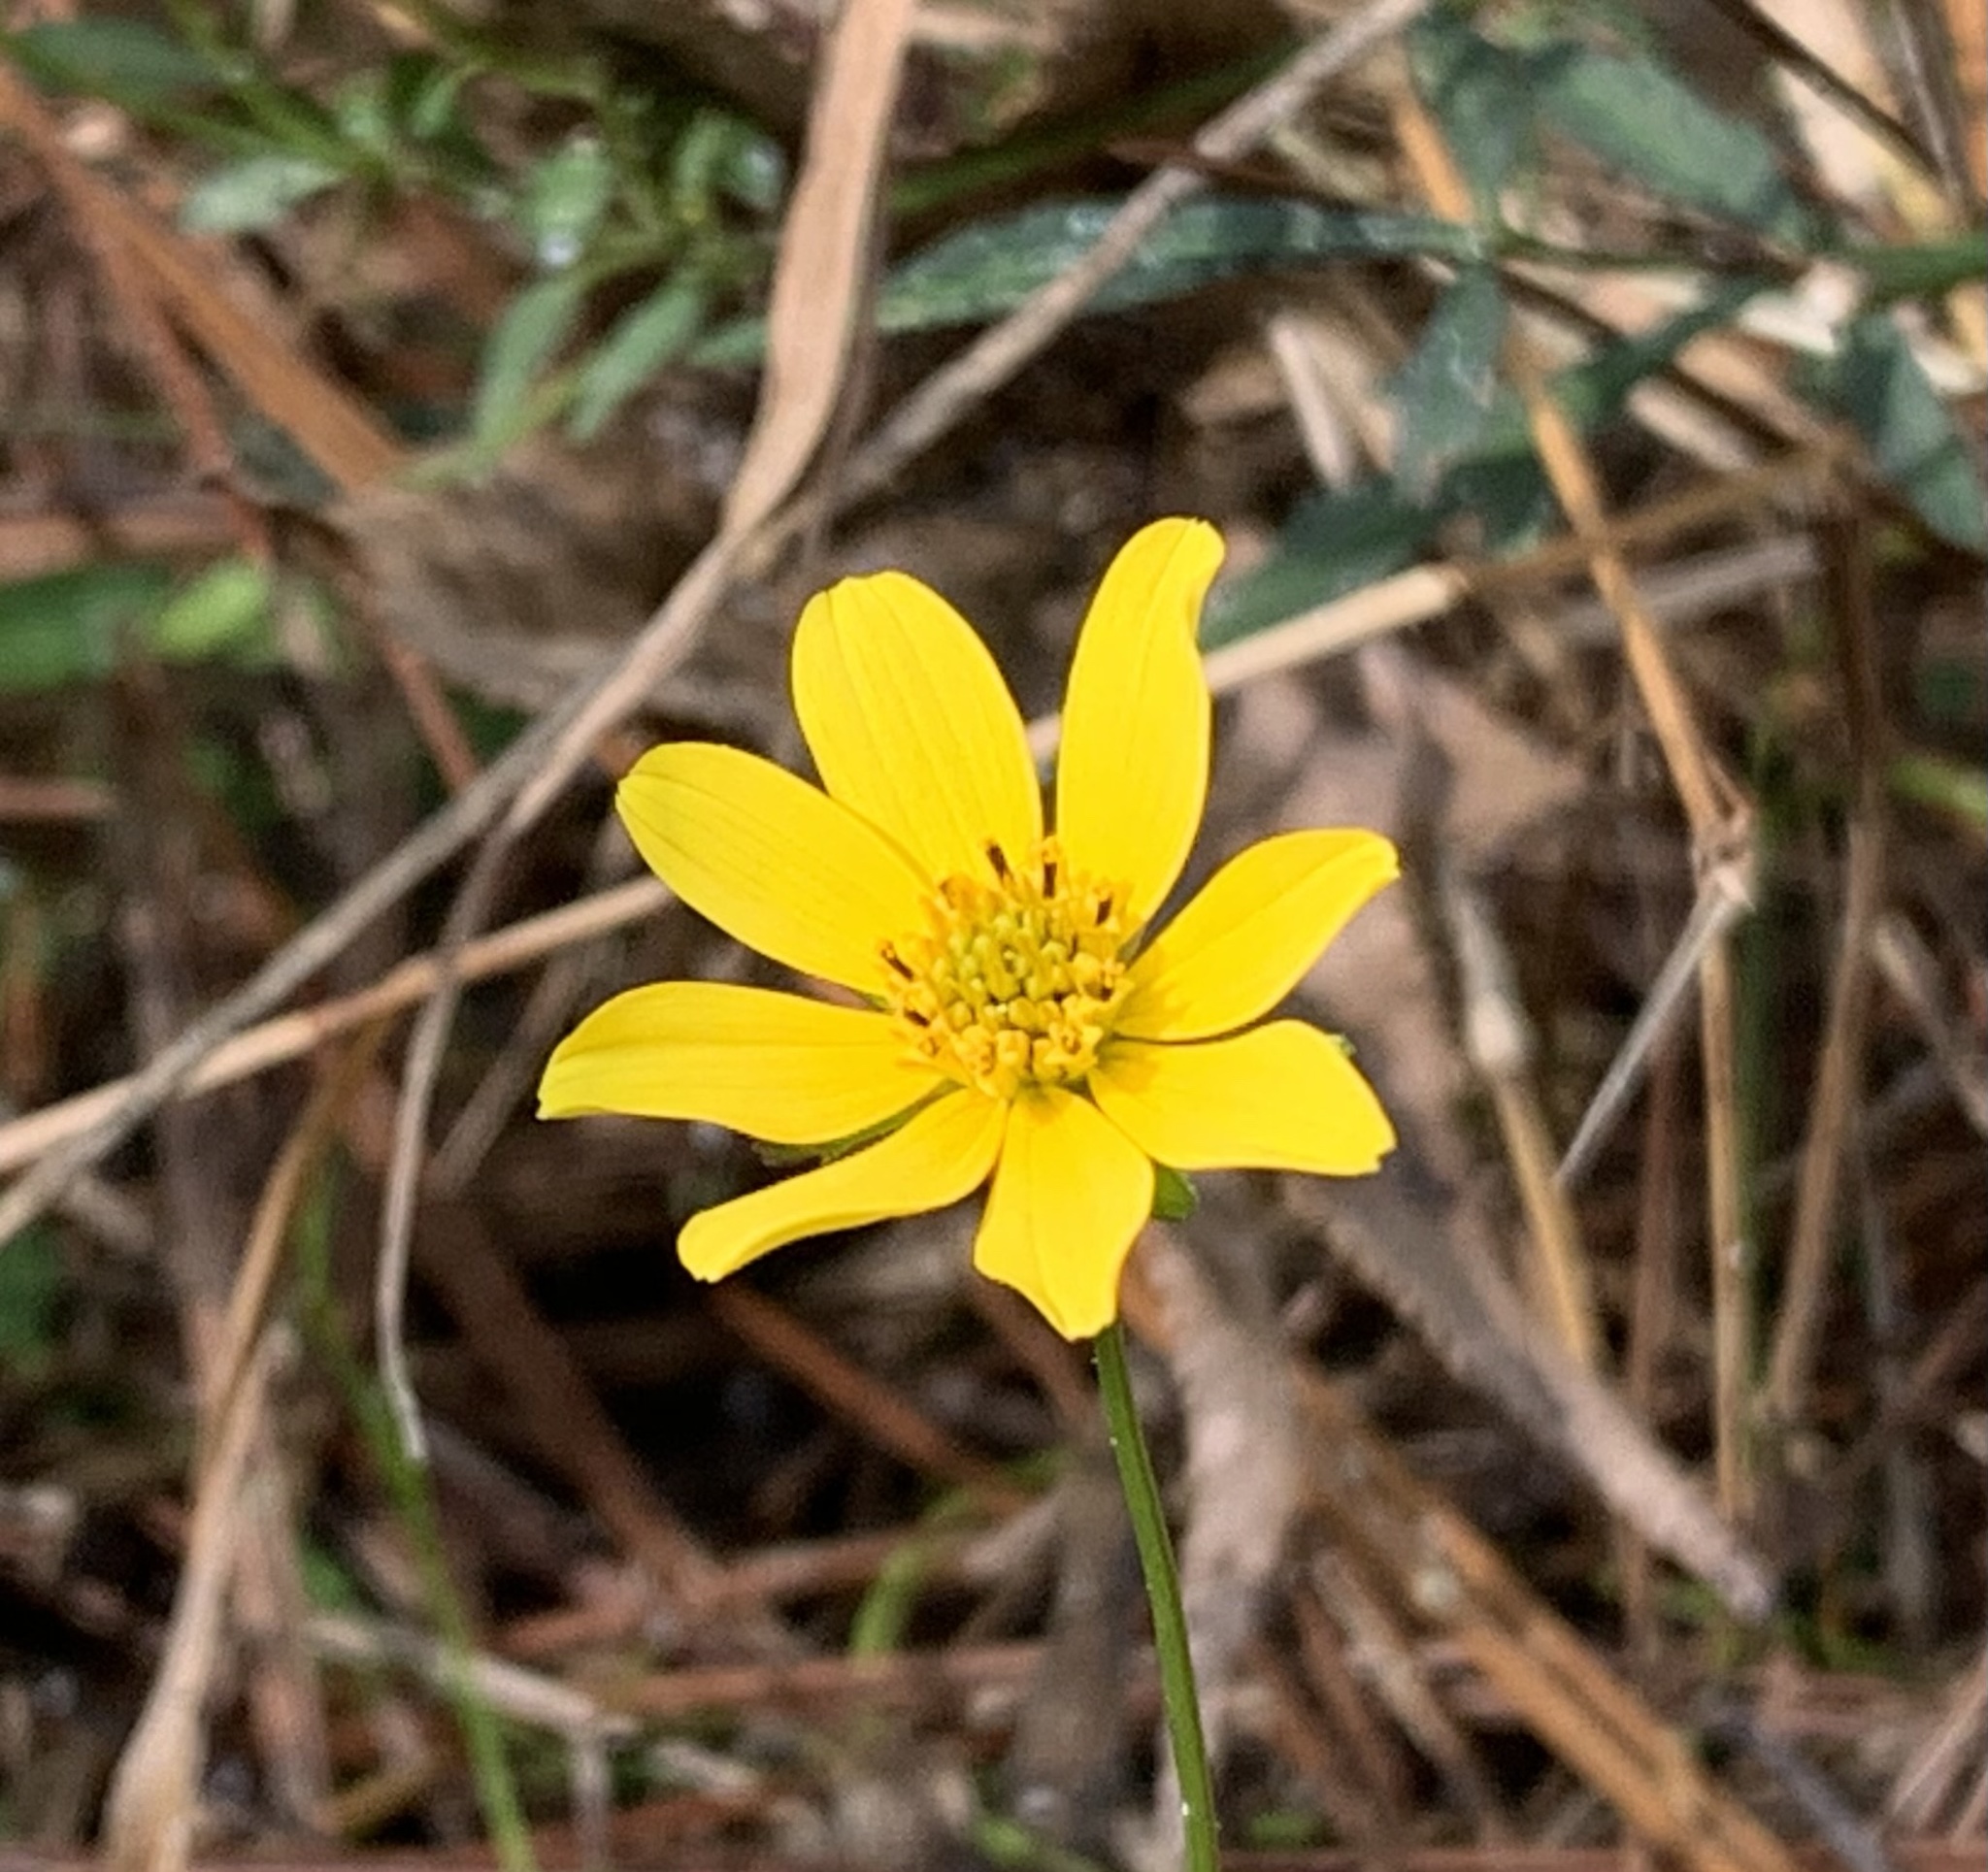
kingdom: Plantae
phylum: Tracheophyta
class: Magnoliopsida
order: Asterales
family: Asteraceae
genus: Bidens
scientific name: Bidens mitis
